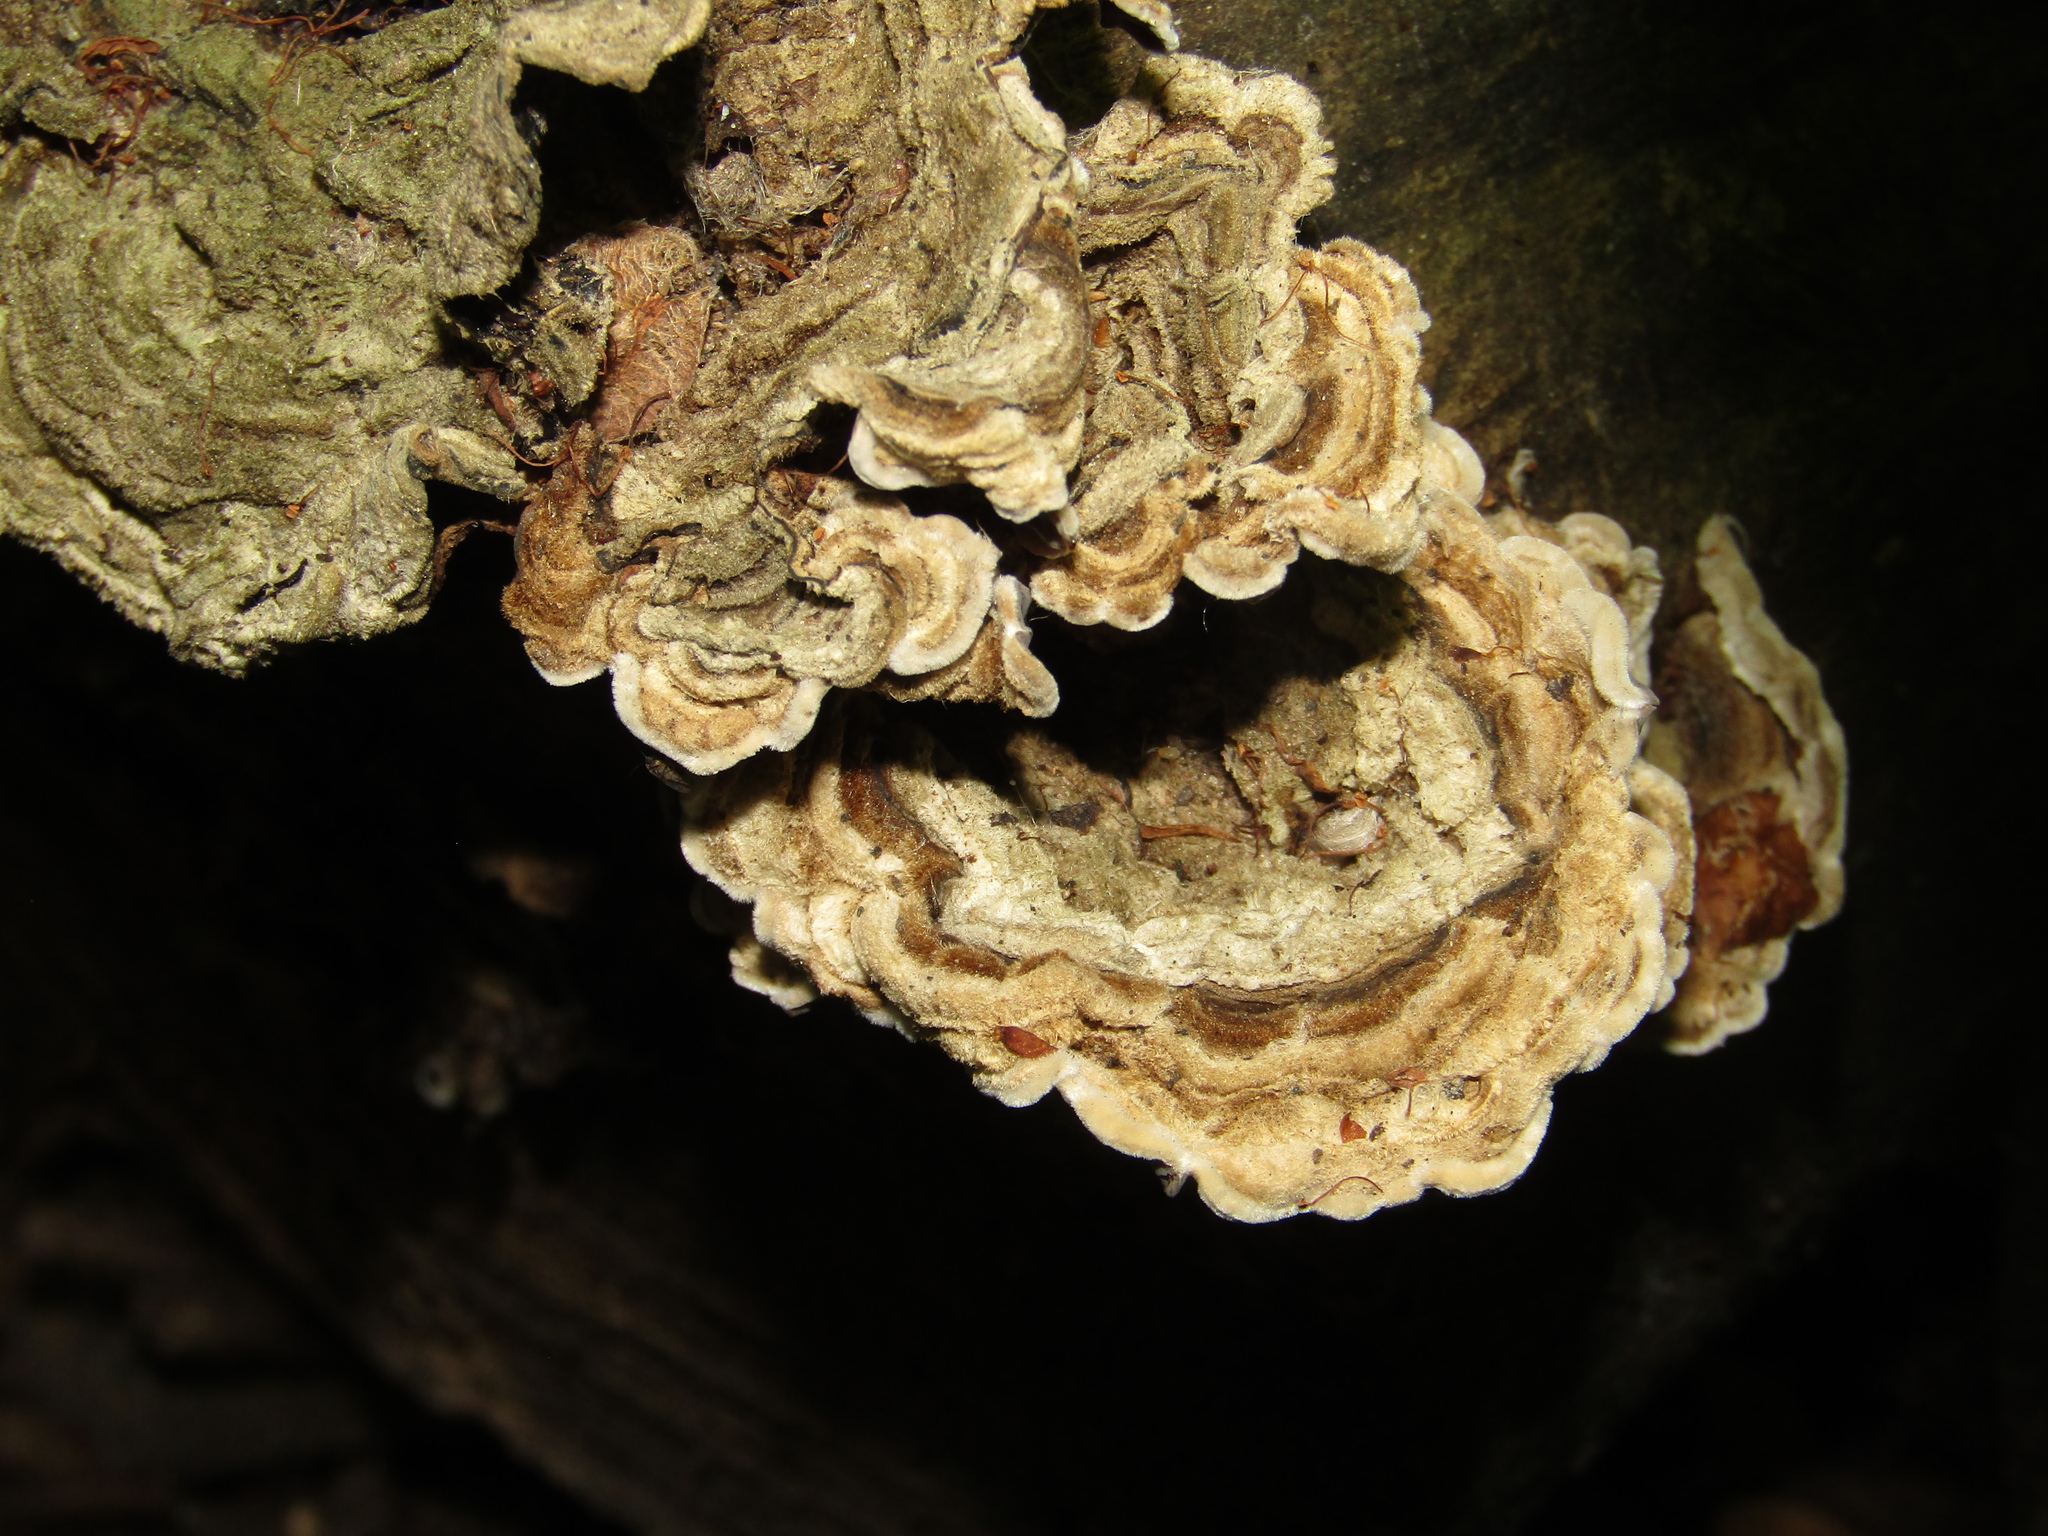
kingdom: Fungi
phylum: Basidiomycota
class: Agaricomycetes
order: Auriculariales
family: Auriculariaceae
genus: Auricularia
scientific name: Auricularia mesenterica
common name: Tripe fungus
